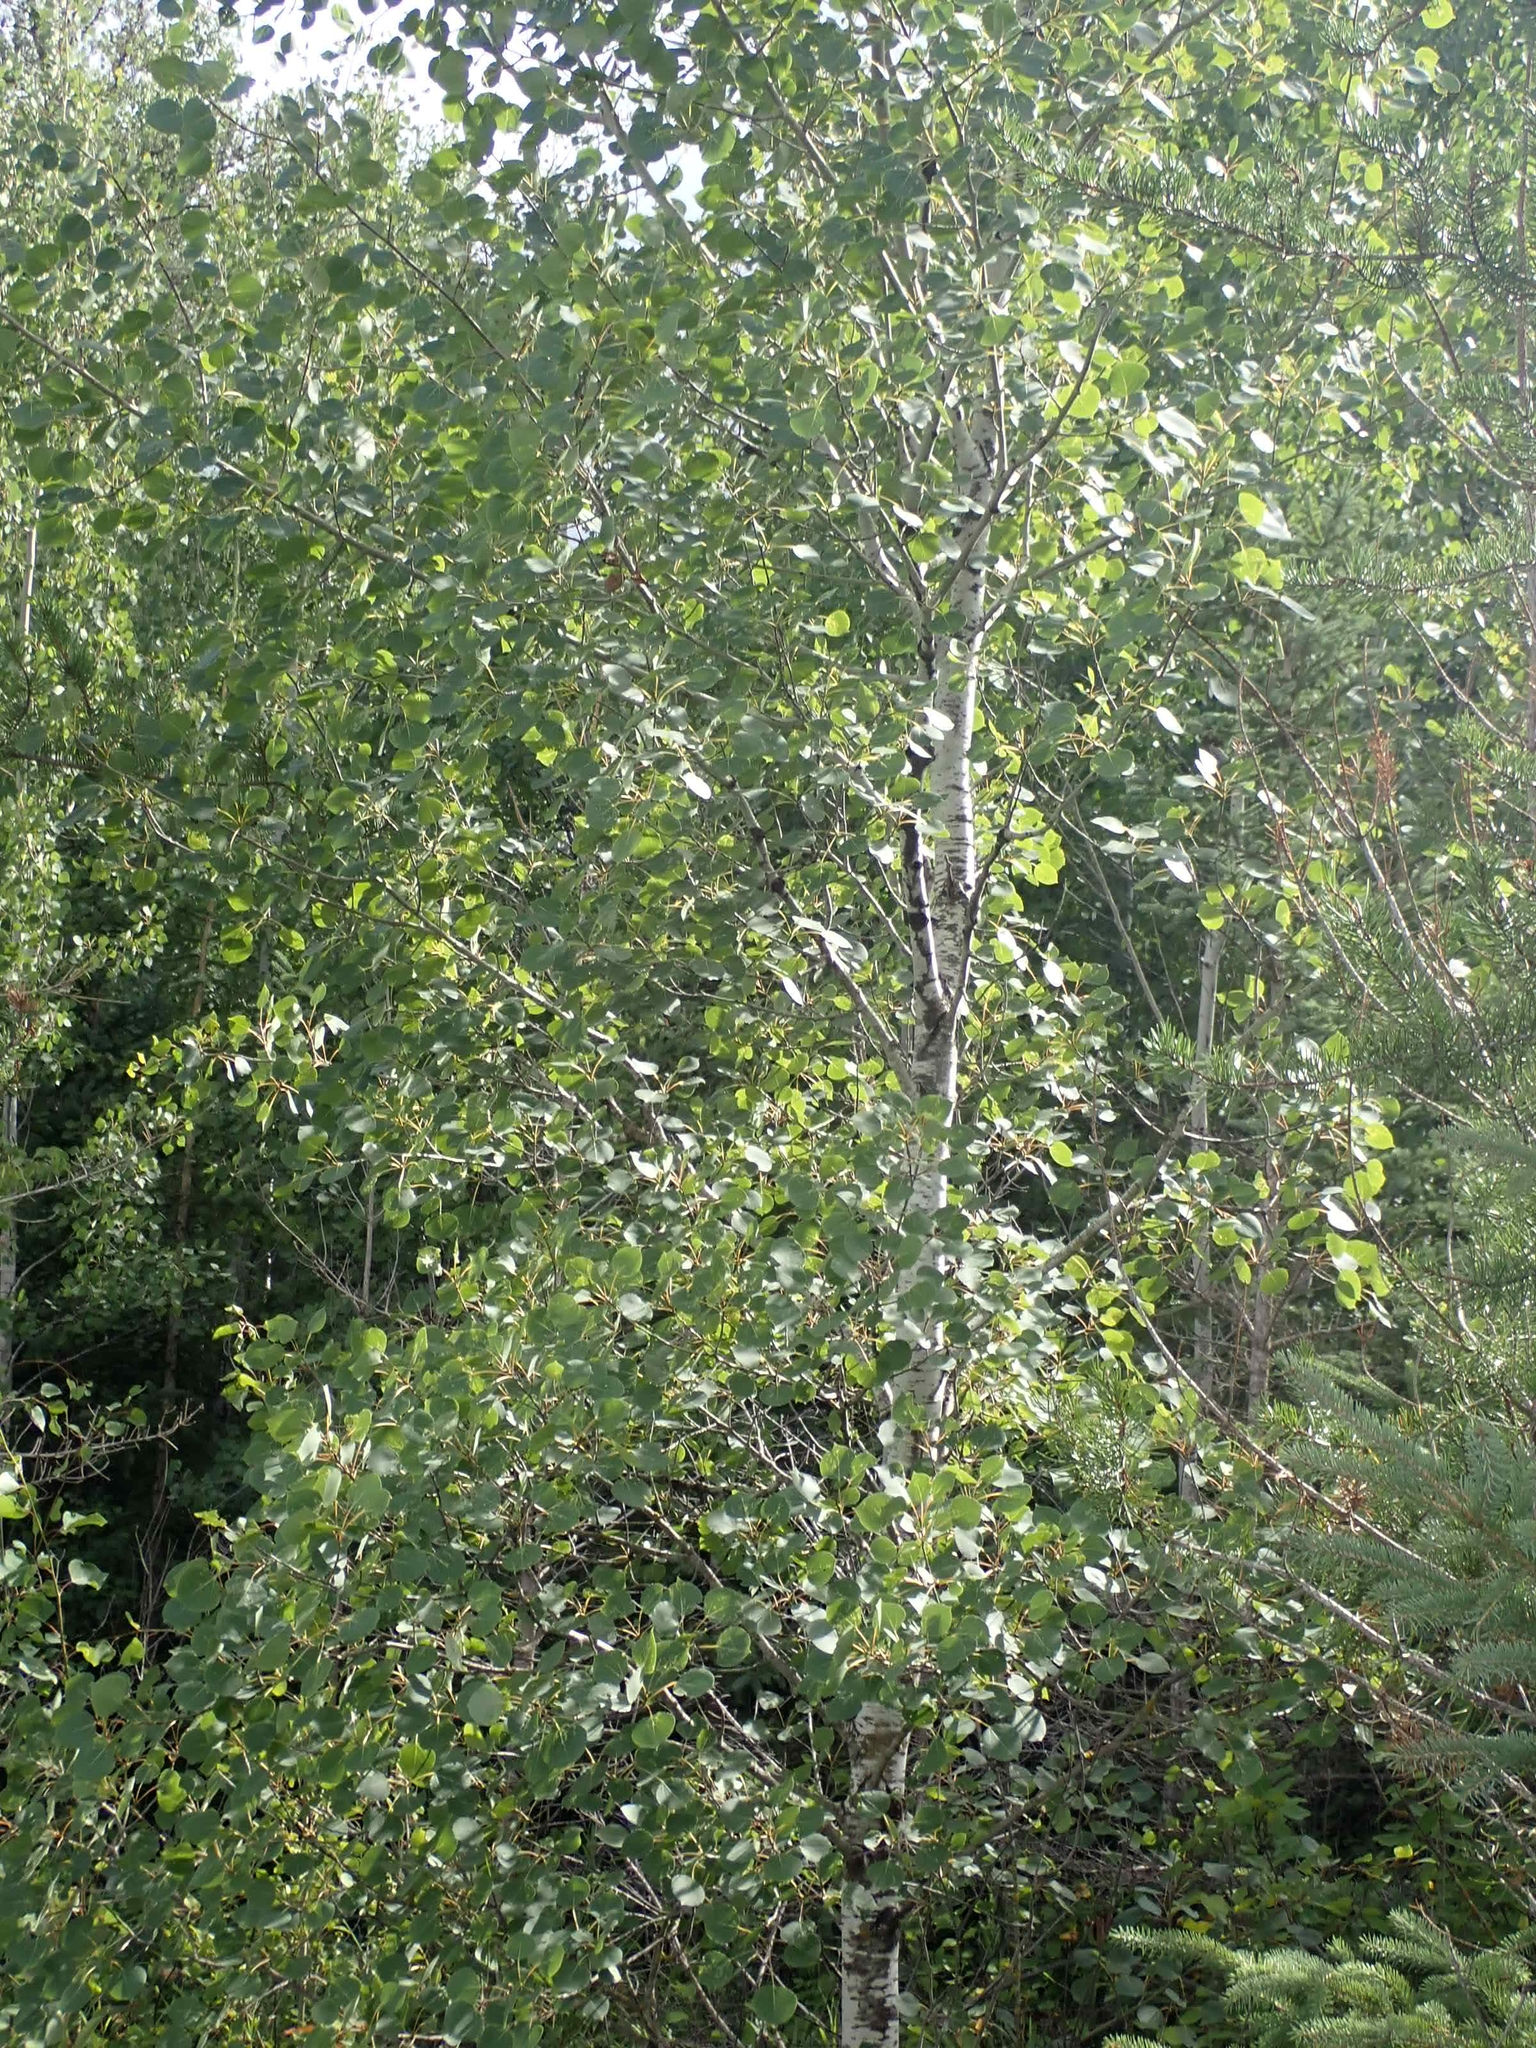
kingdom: Plantae
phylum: Tracheophyta
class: Magnoliopsida
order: Malpighiales
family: Salicaceae
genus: Populus
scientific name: Populus tremuloides
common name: Quaking aspen
